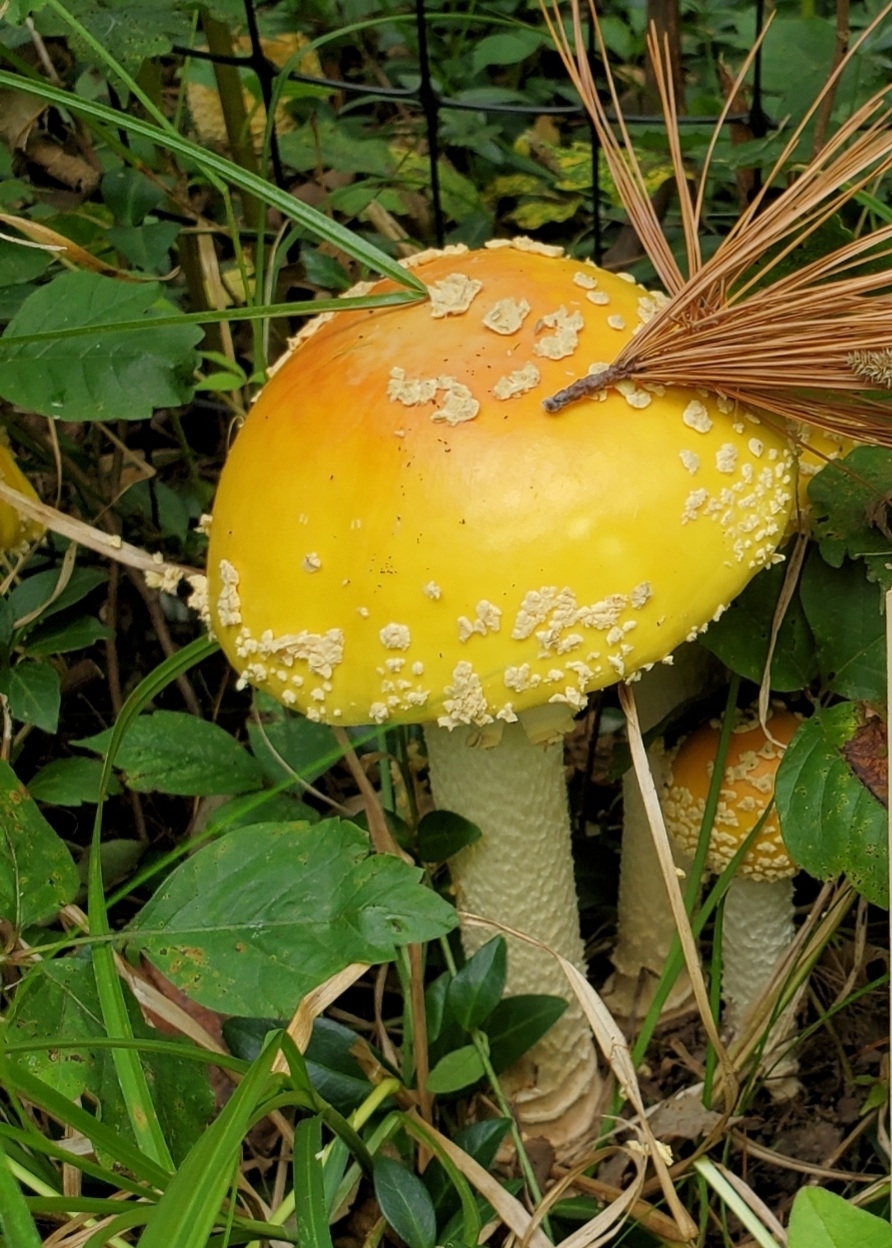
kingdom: Fungi
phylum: Basidiomycota
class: Agaricomycetes
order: Agaricales
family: Amanitaceae
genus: Amanita
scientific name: Amanita muscaria
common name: Fly agaric
